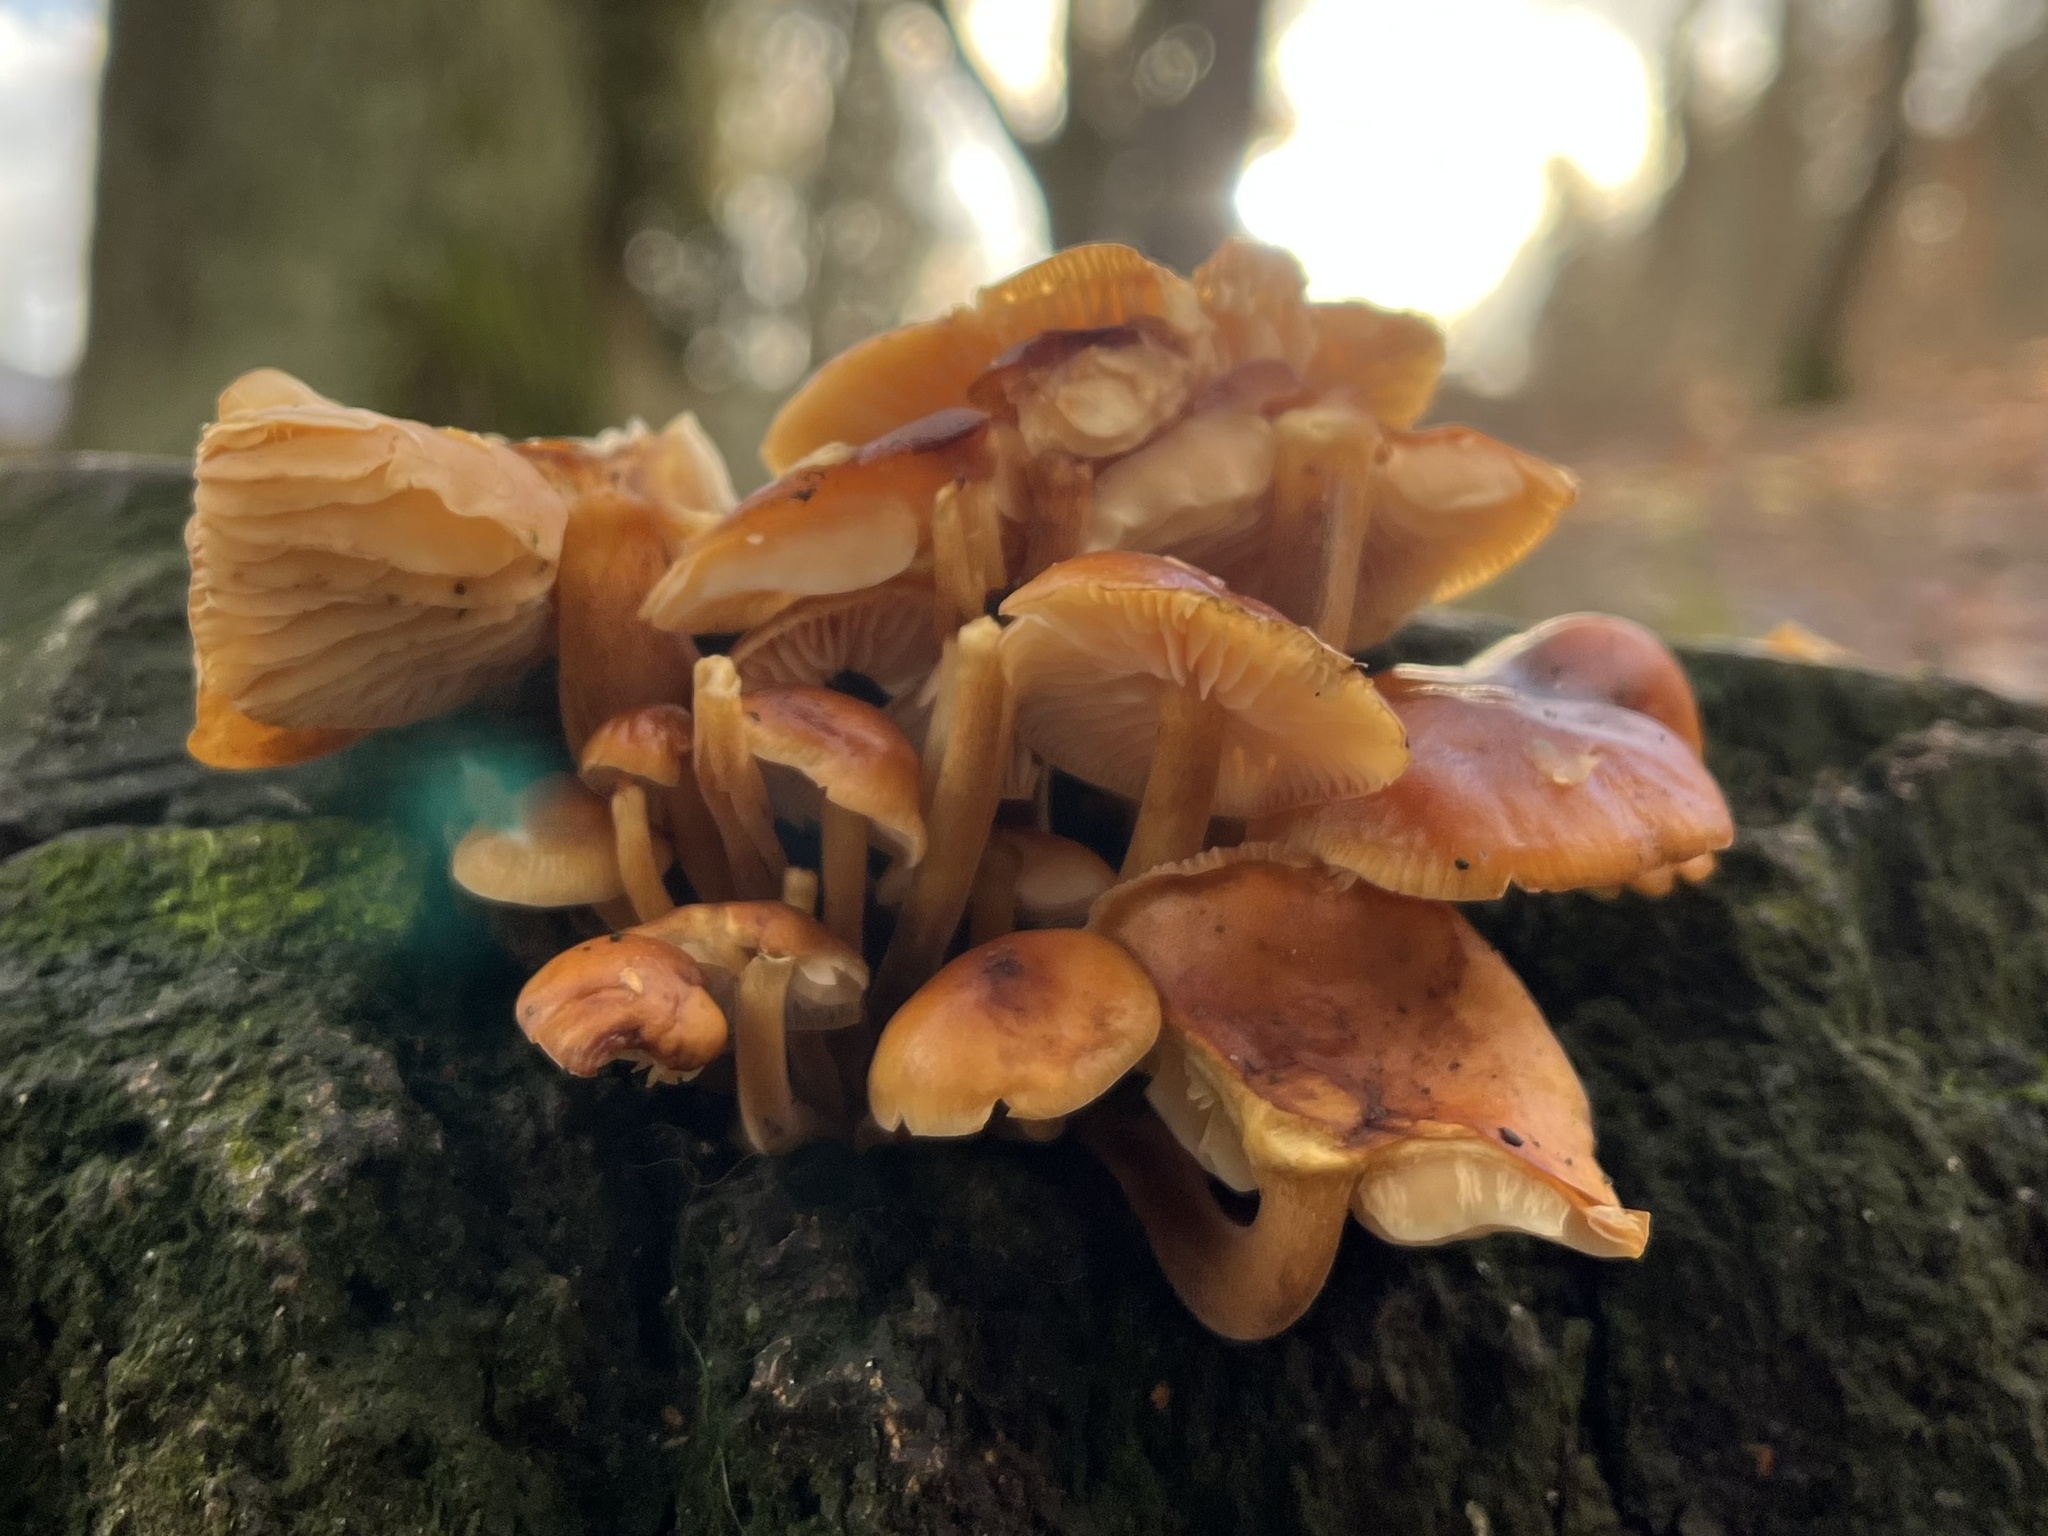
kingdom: Fungi
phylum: Basidiomycota
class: Agaricomycetes
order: Agaricales
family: Physalacriaceae
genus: Flammulina
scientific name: Flammulina
